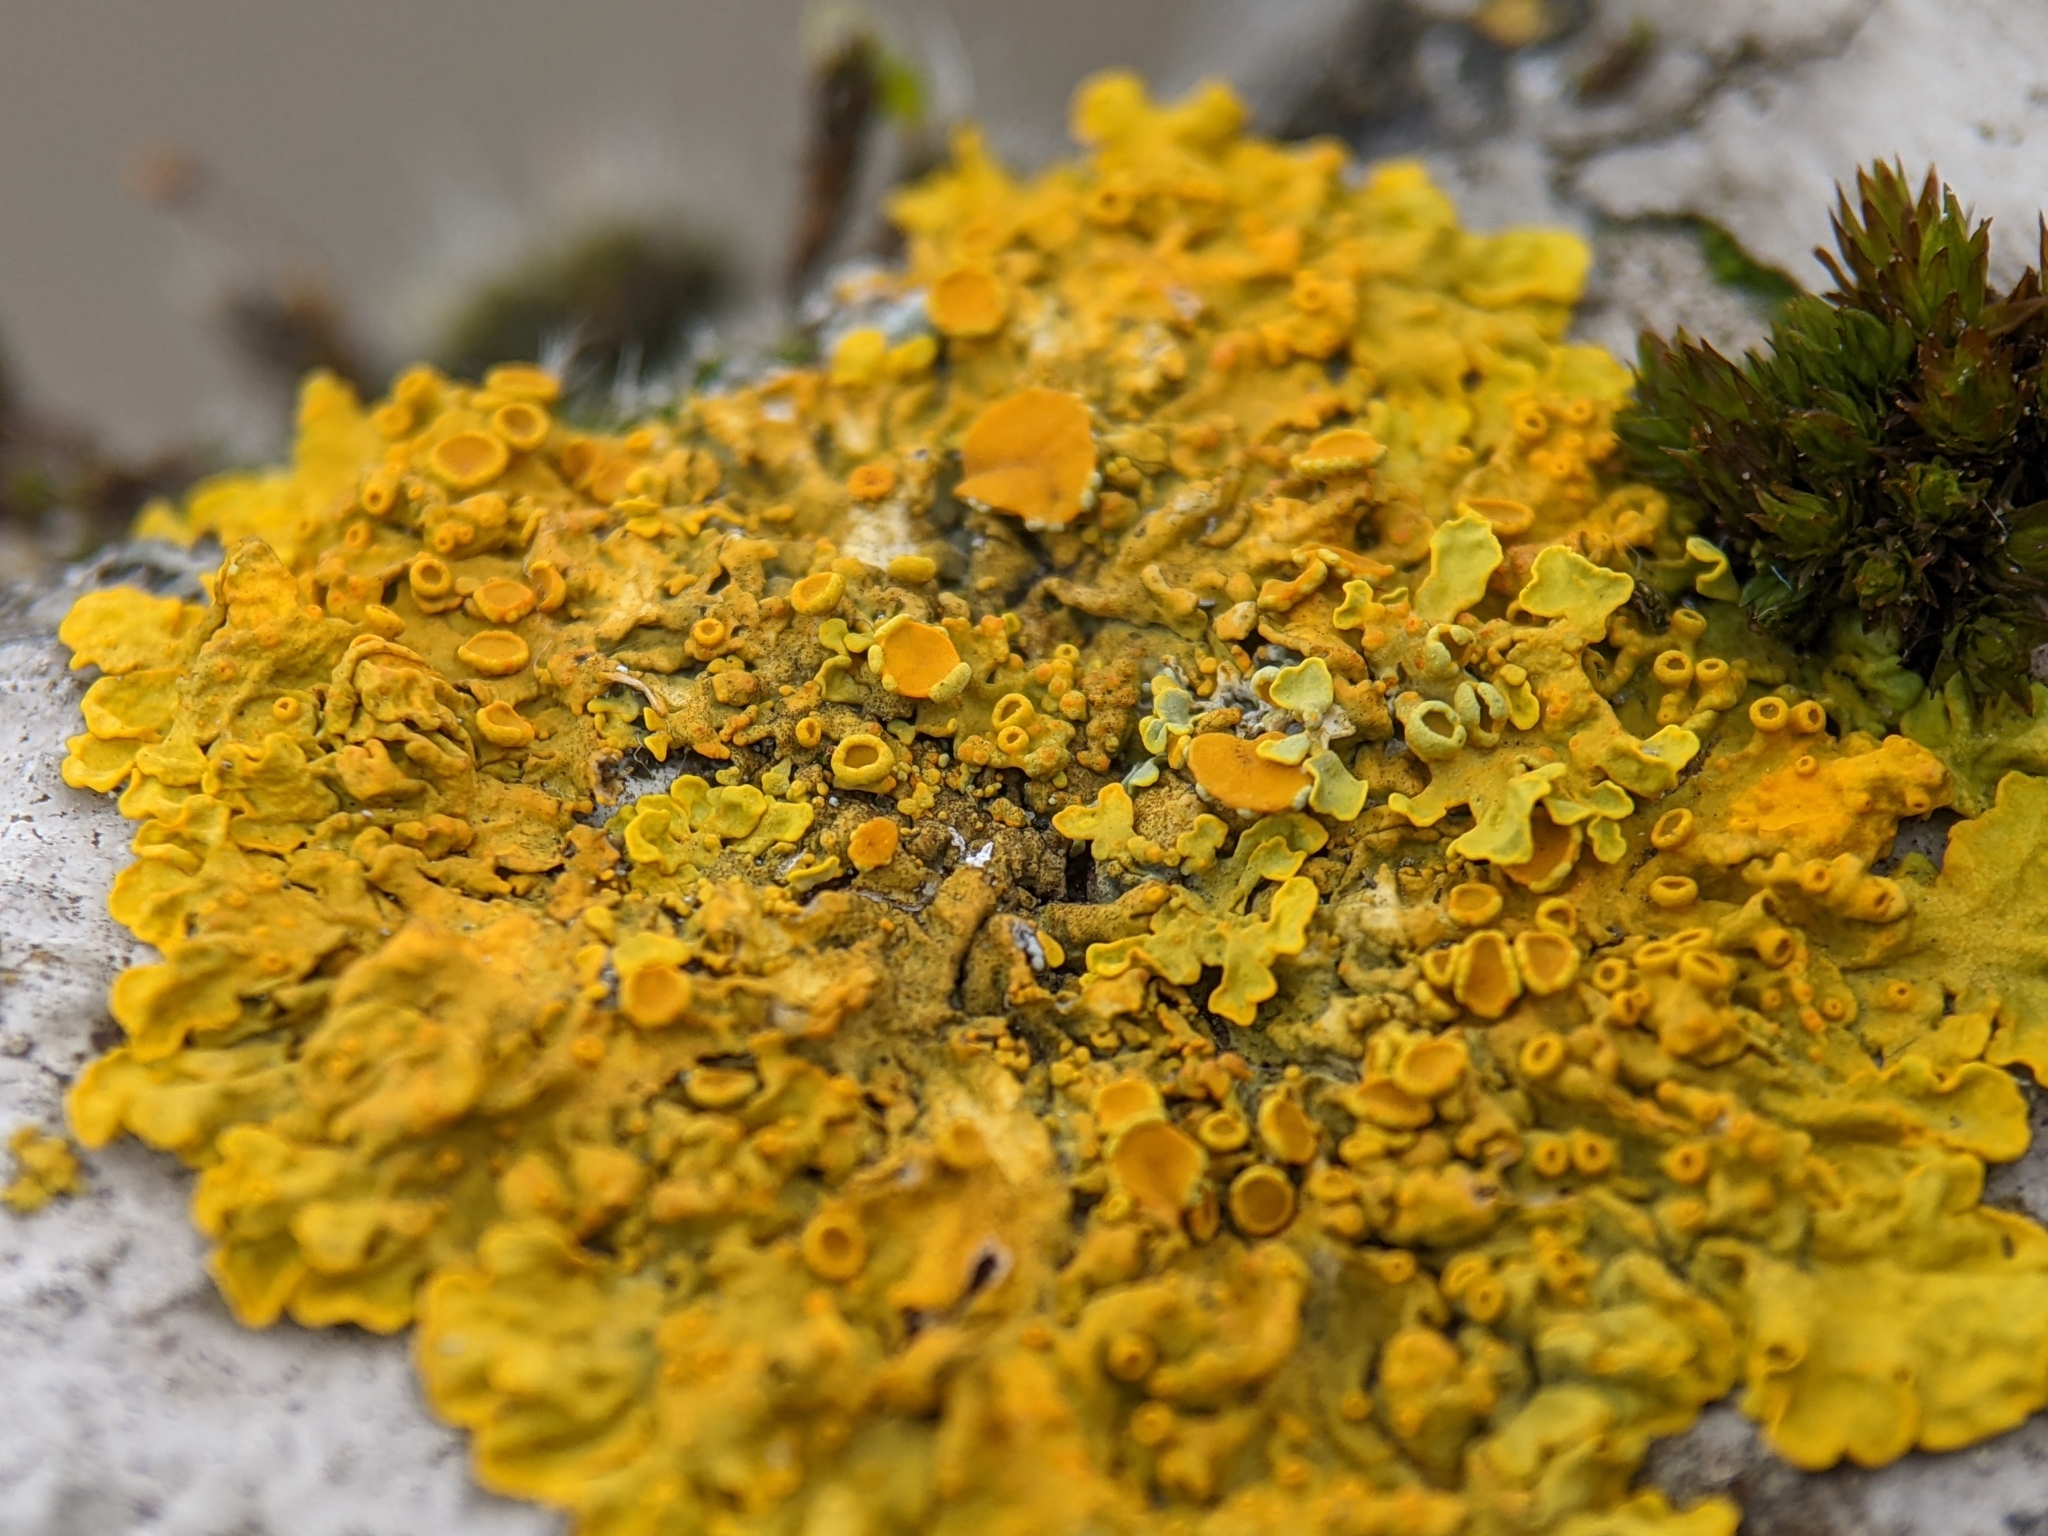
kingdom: Fungi
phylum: Ascomycota
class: Lecanoromycetes
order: Teloschistales
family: Teloschistaceae
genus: Xanthoria
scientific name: Xanthoria parietina
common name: Common orange lichen
